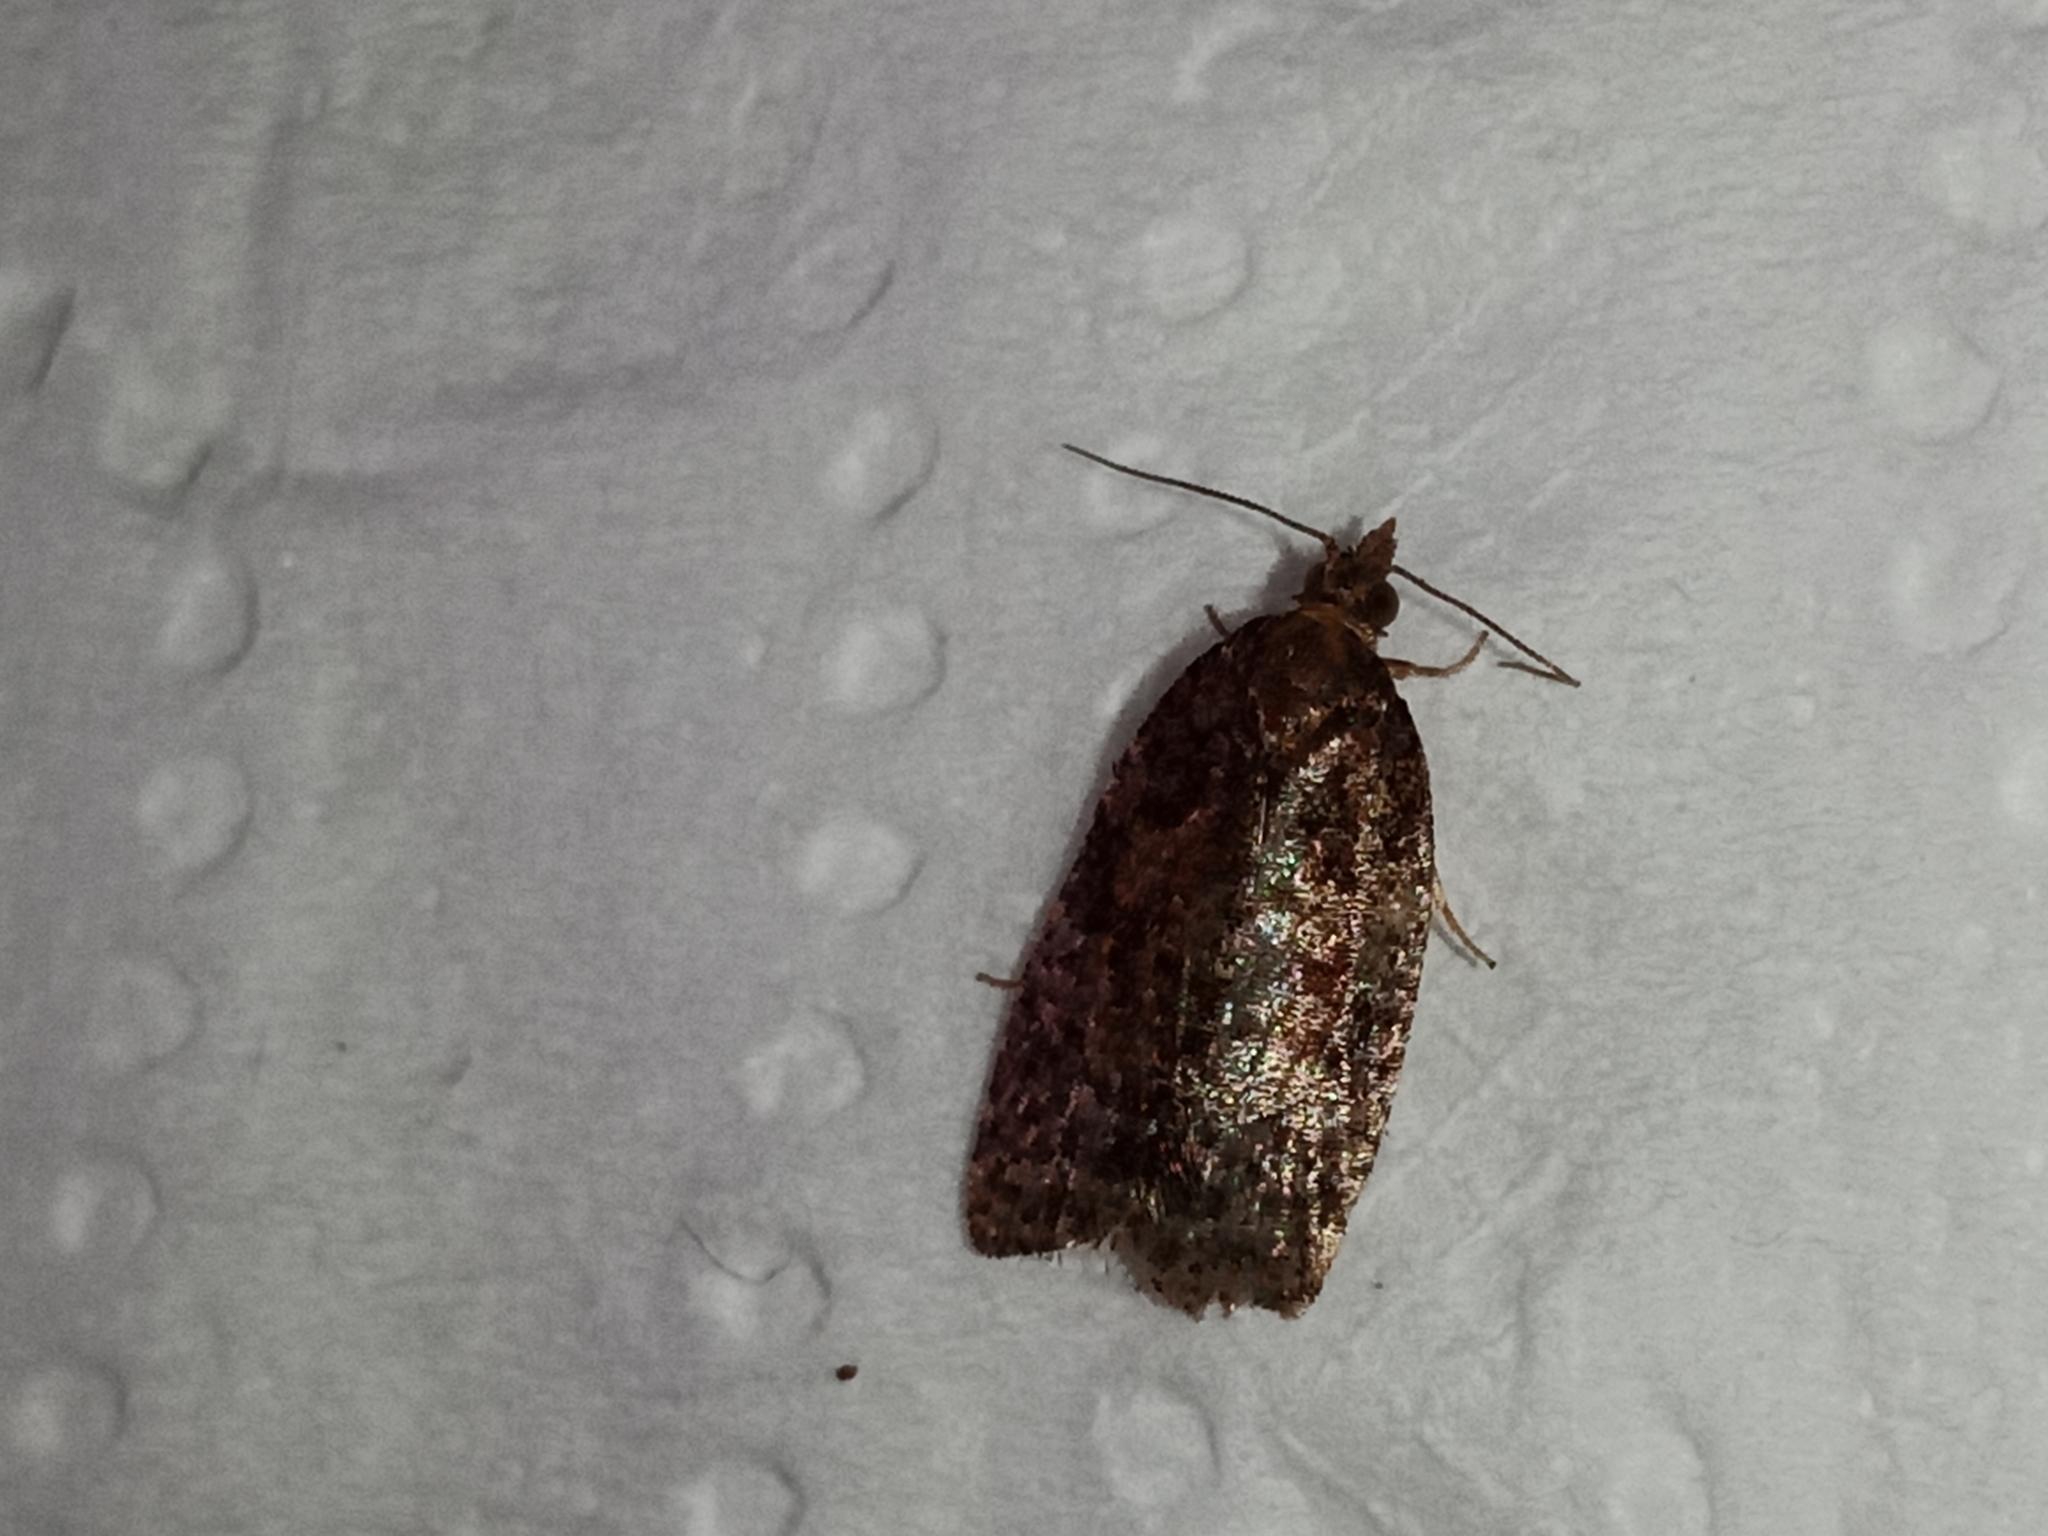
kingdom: Animalia
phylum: Arthropoda
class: Insecta
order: Lepidoptera
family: Tortricidae
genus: Capua
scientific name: Capua intractana
